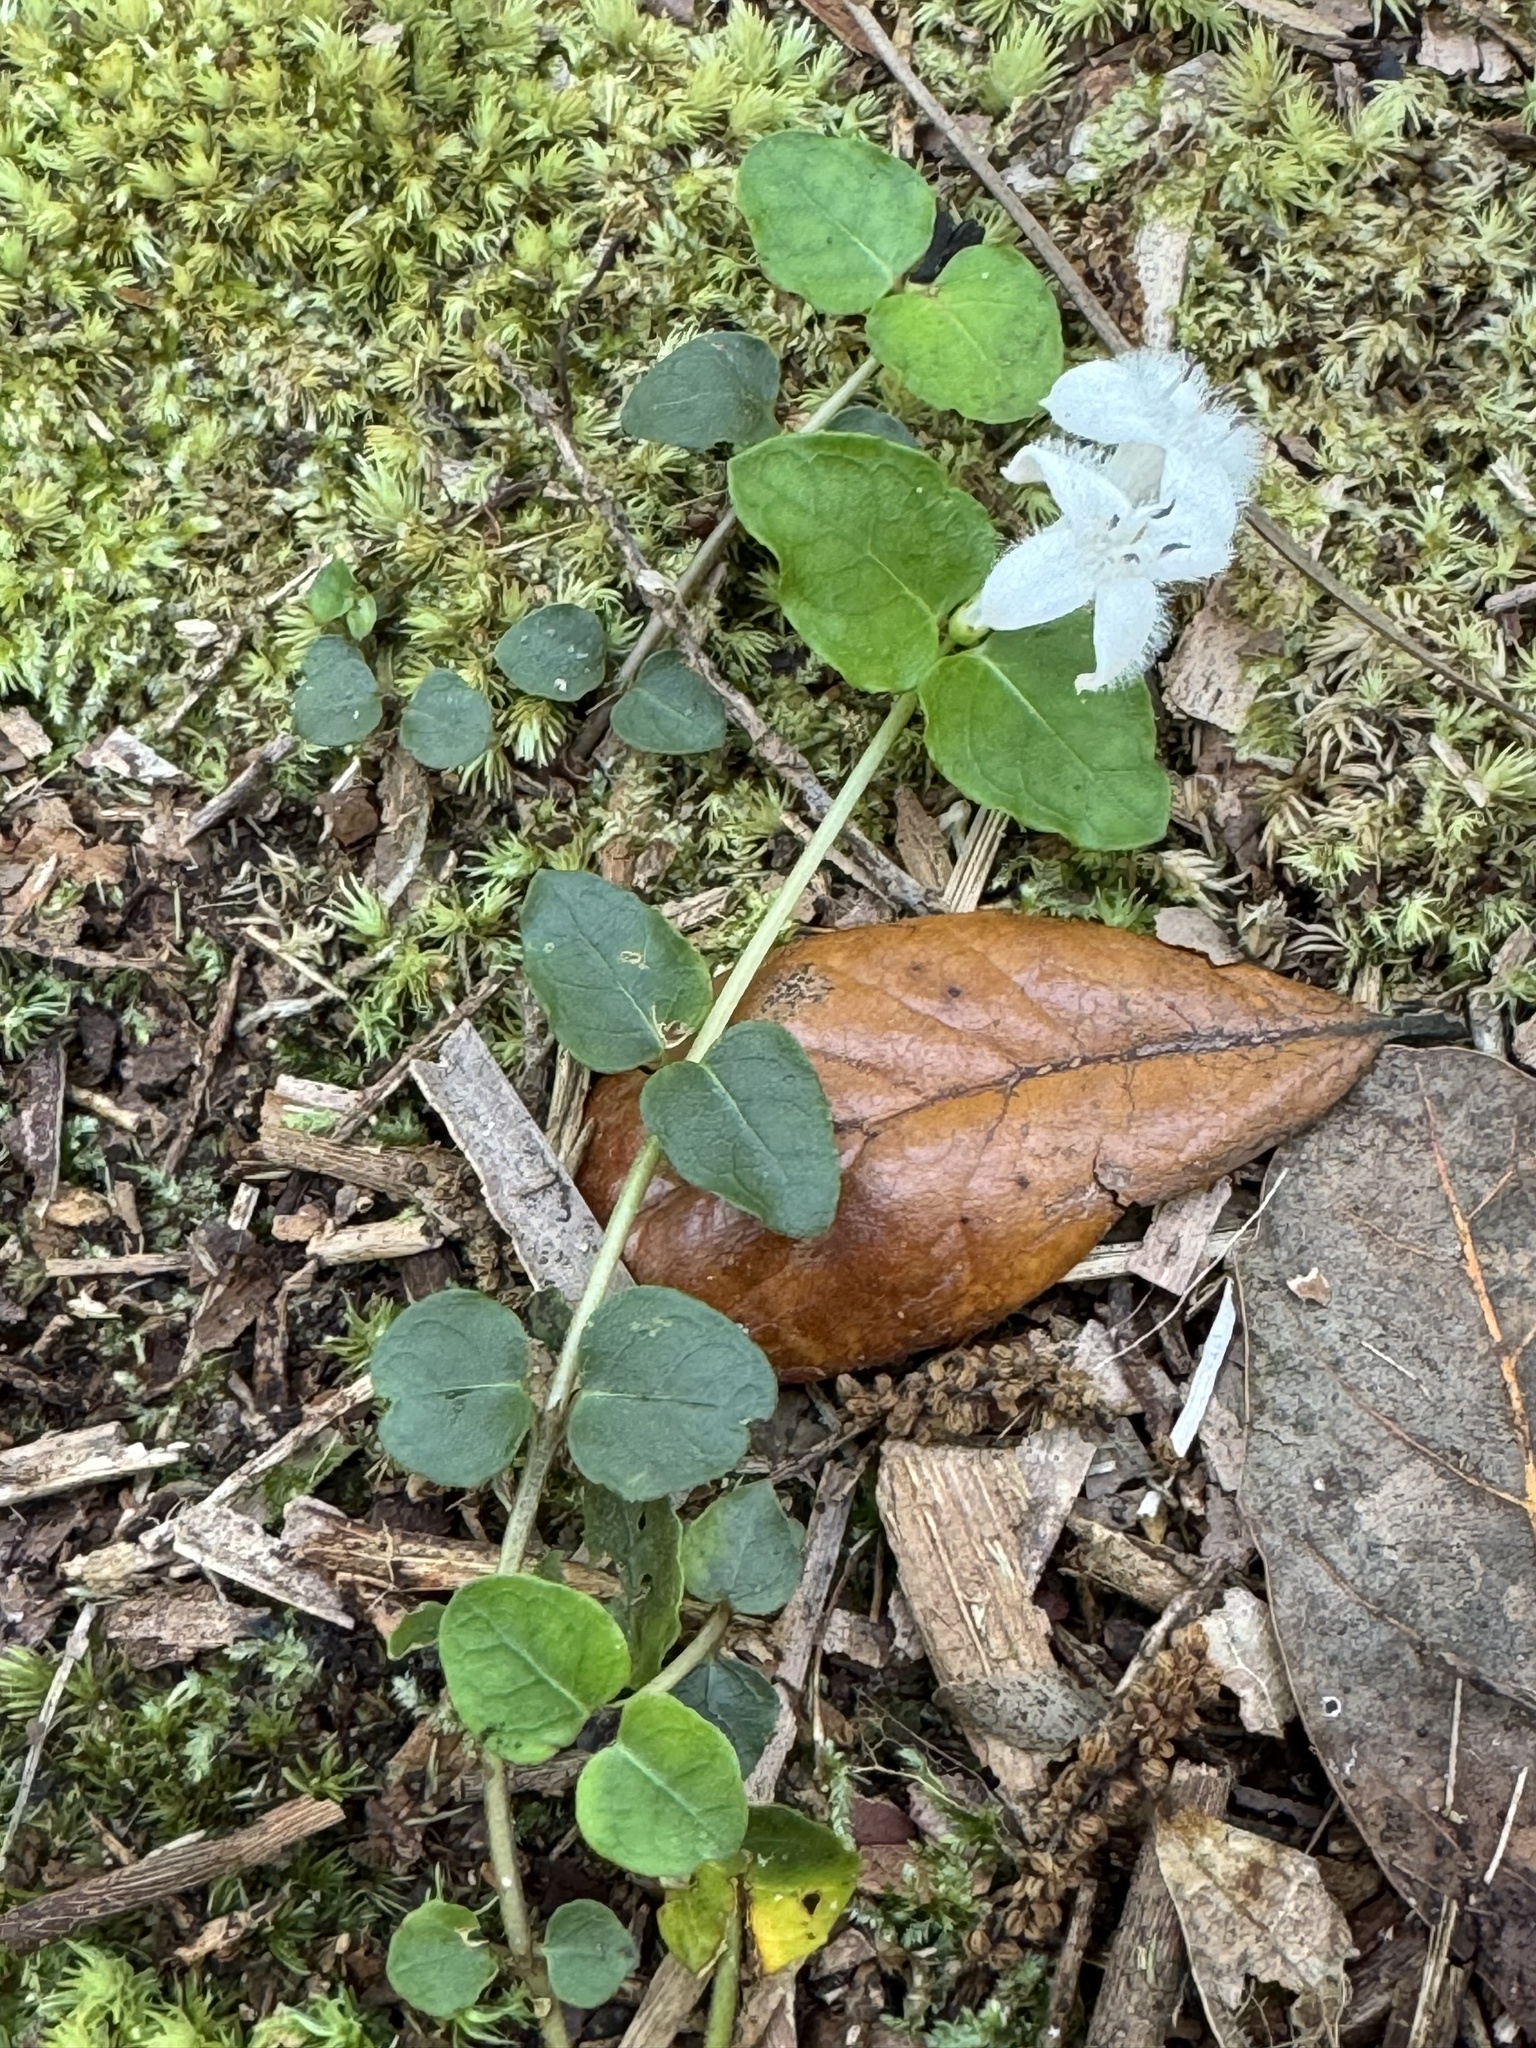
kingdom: Plantae
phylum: Tracheophyta
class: Magnoliopsida
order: Gentianales
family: Rubiaceae
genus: Mitchella
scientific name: Mitchella repens
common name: Partridge-berry
